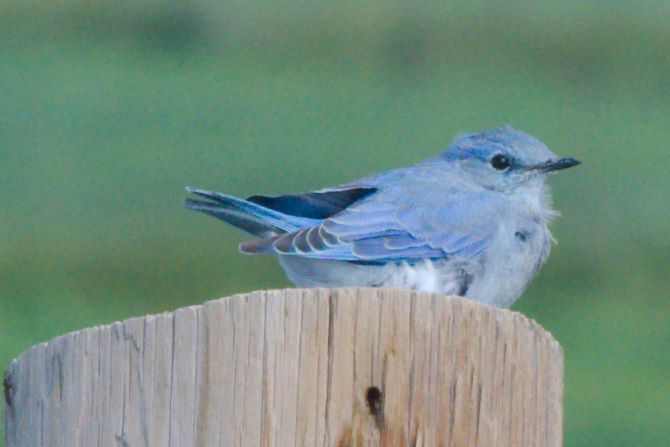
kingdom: Animalia
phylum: Chordata
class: Aves
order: Passeriformes
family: Turdidae
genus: Sialia
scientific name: Sialia currucoides
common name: Mountain bluebird
